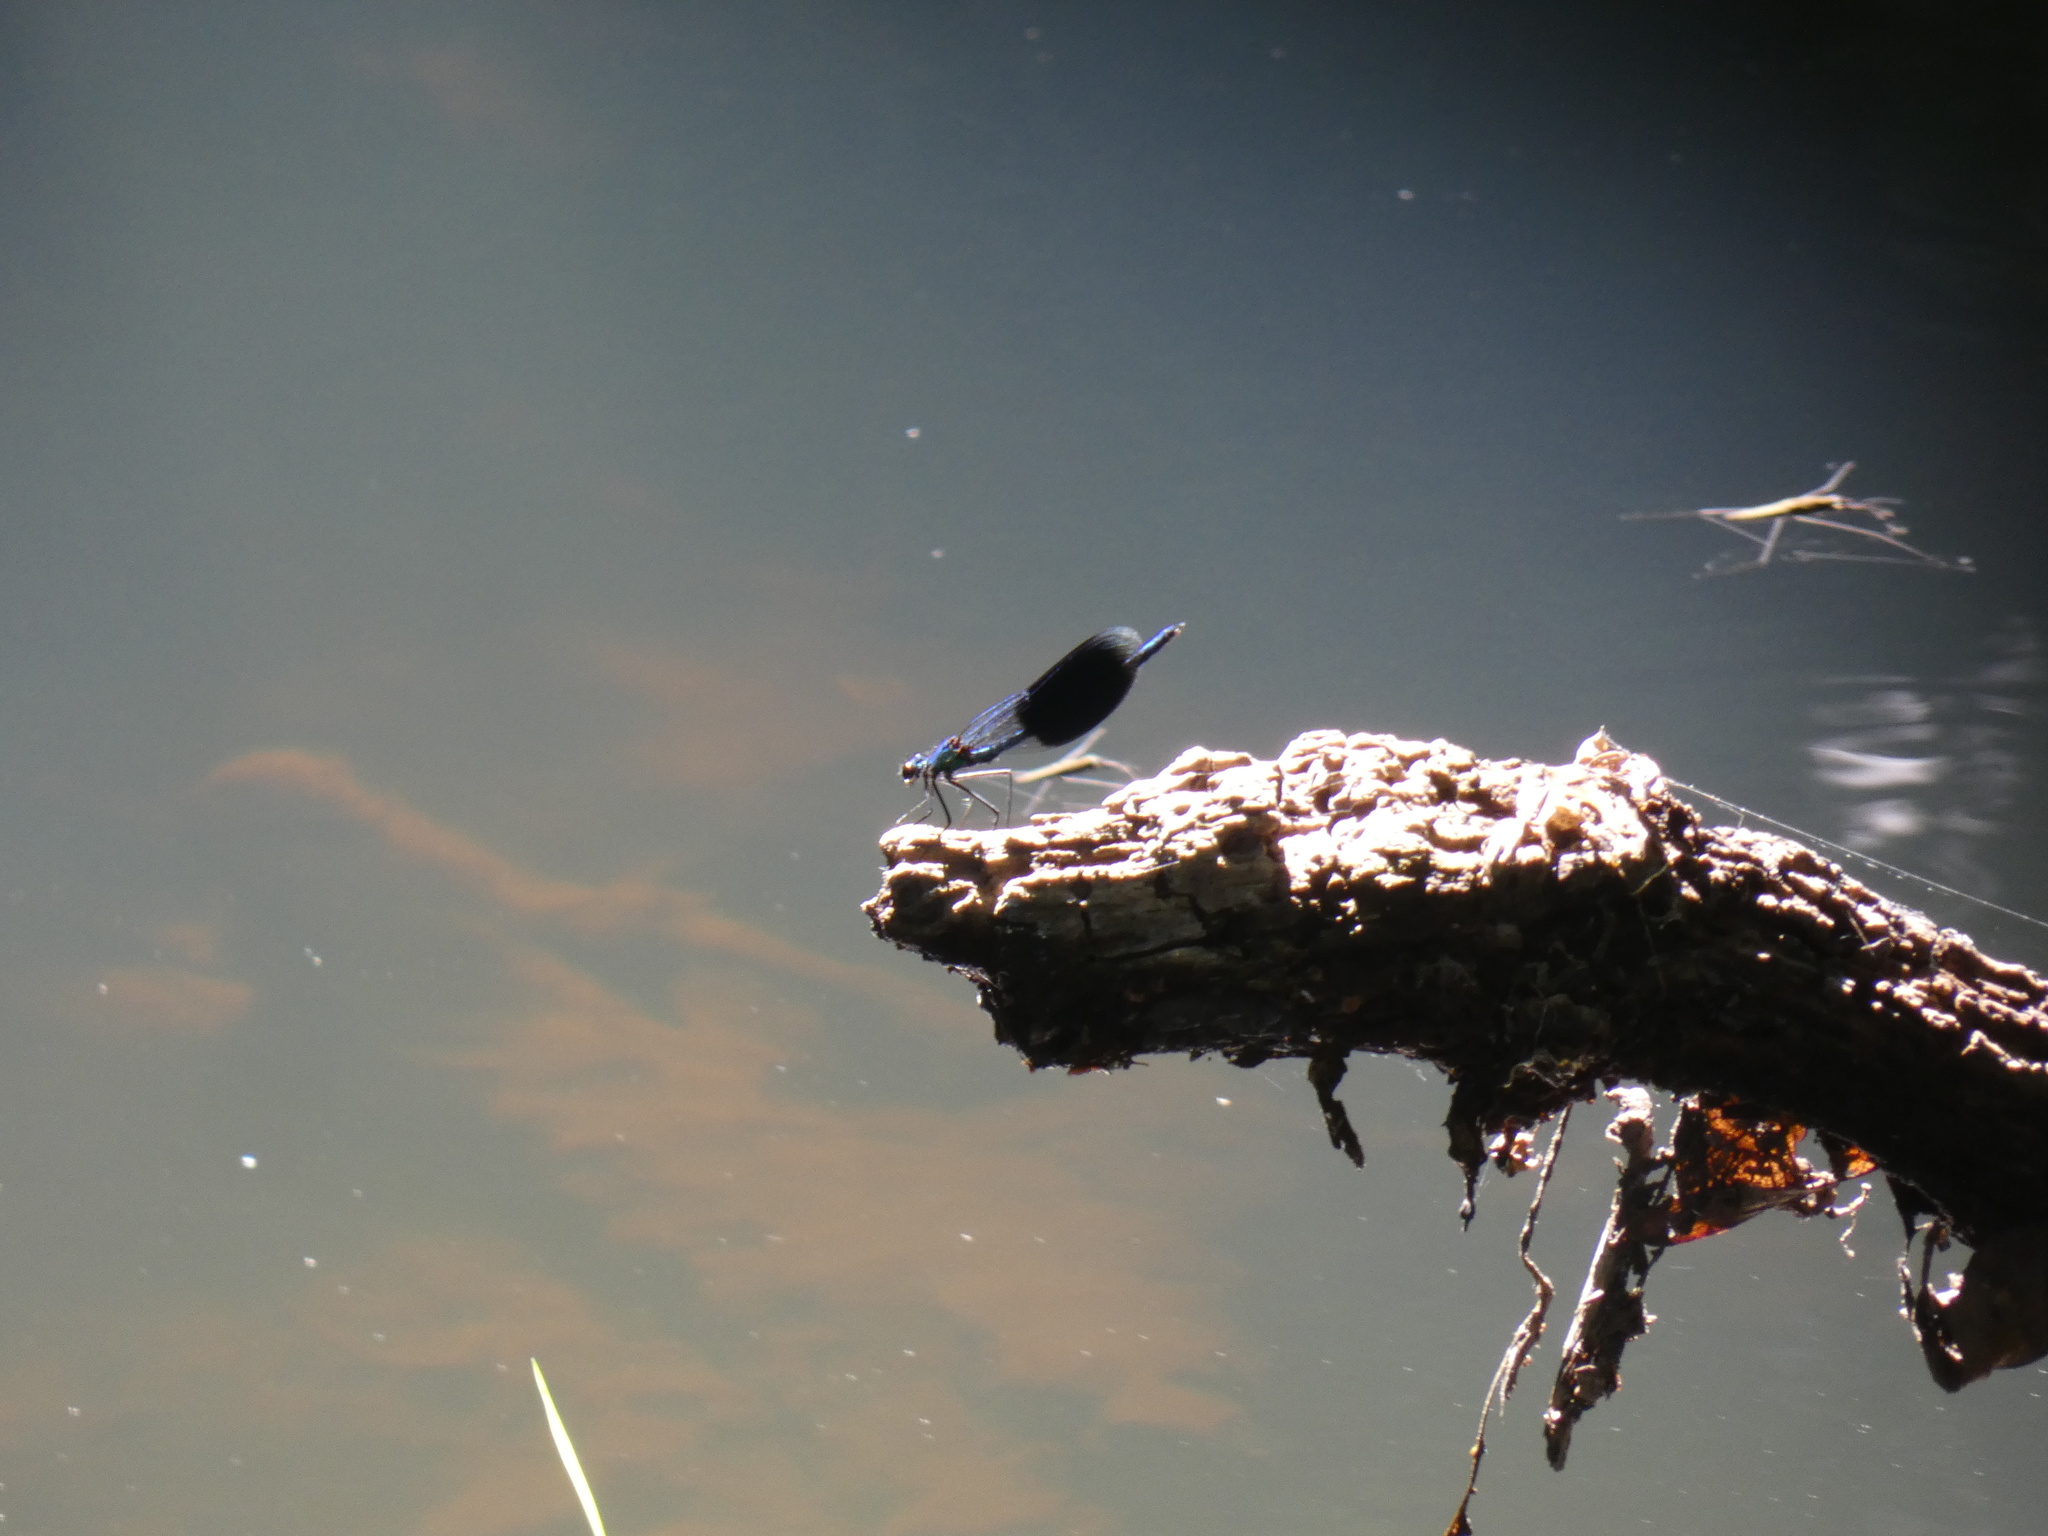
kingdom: Animalia
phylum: Arthropoda
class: Insecta
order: Odonata
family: Calopterygidae
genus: Calopteryx
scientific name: Calopteryx splendens
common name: Banded demoiselle
